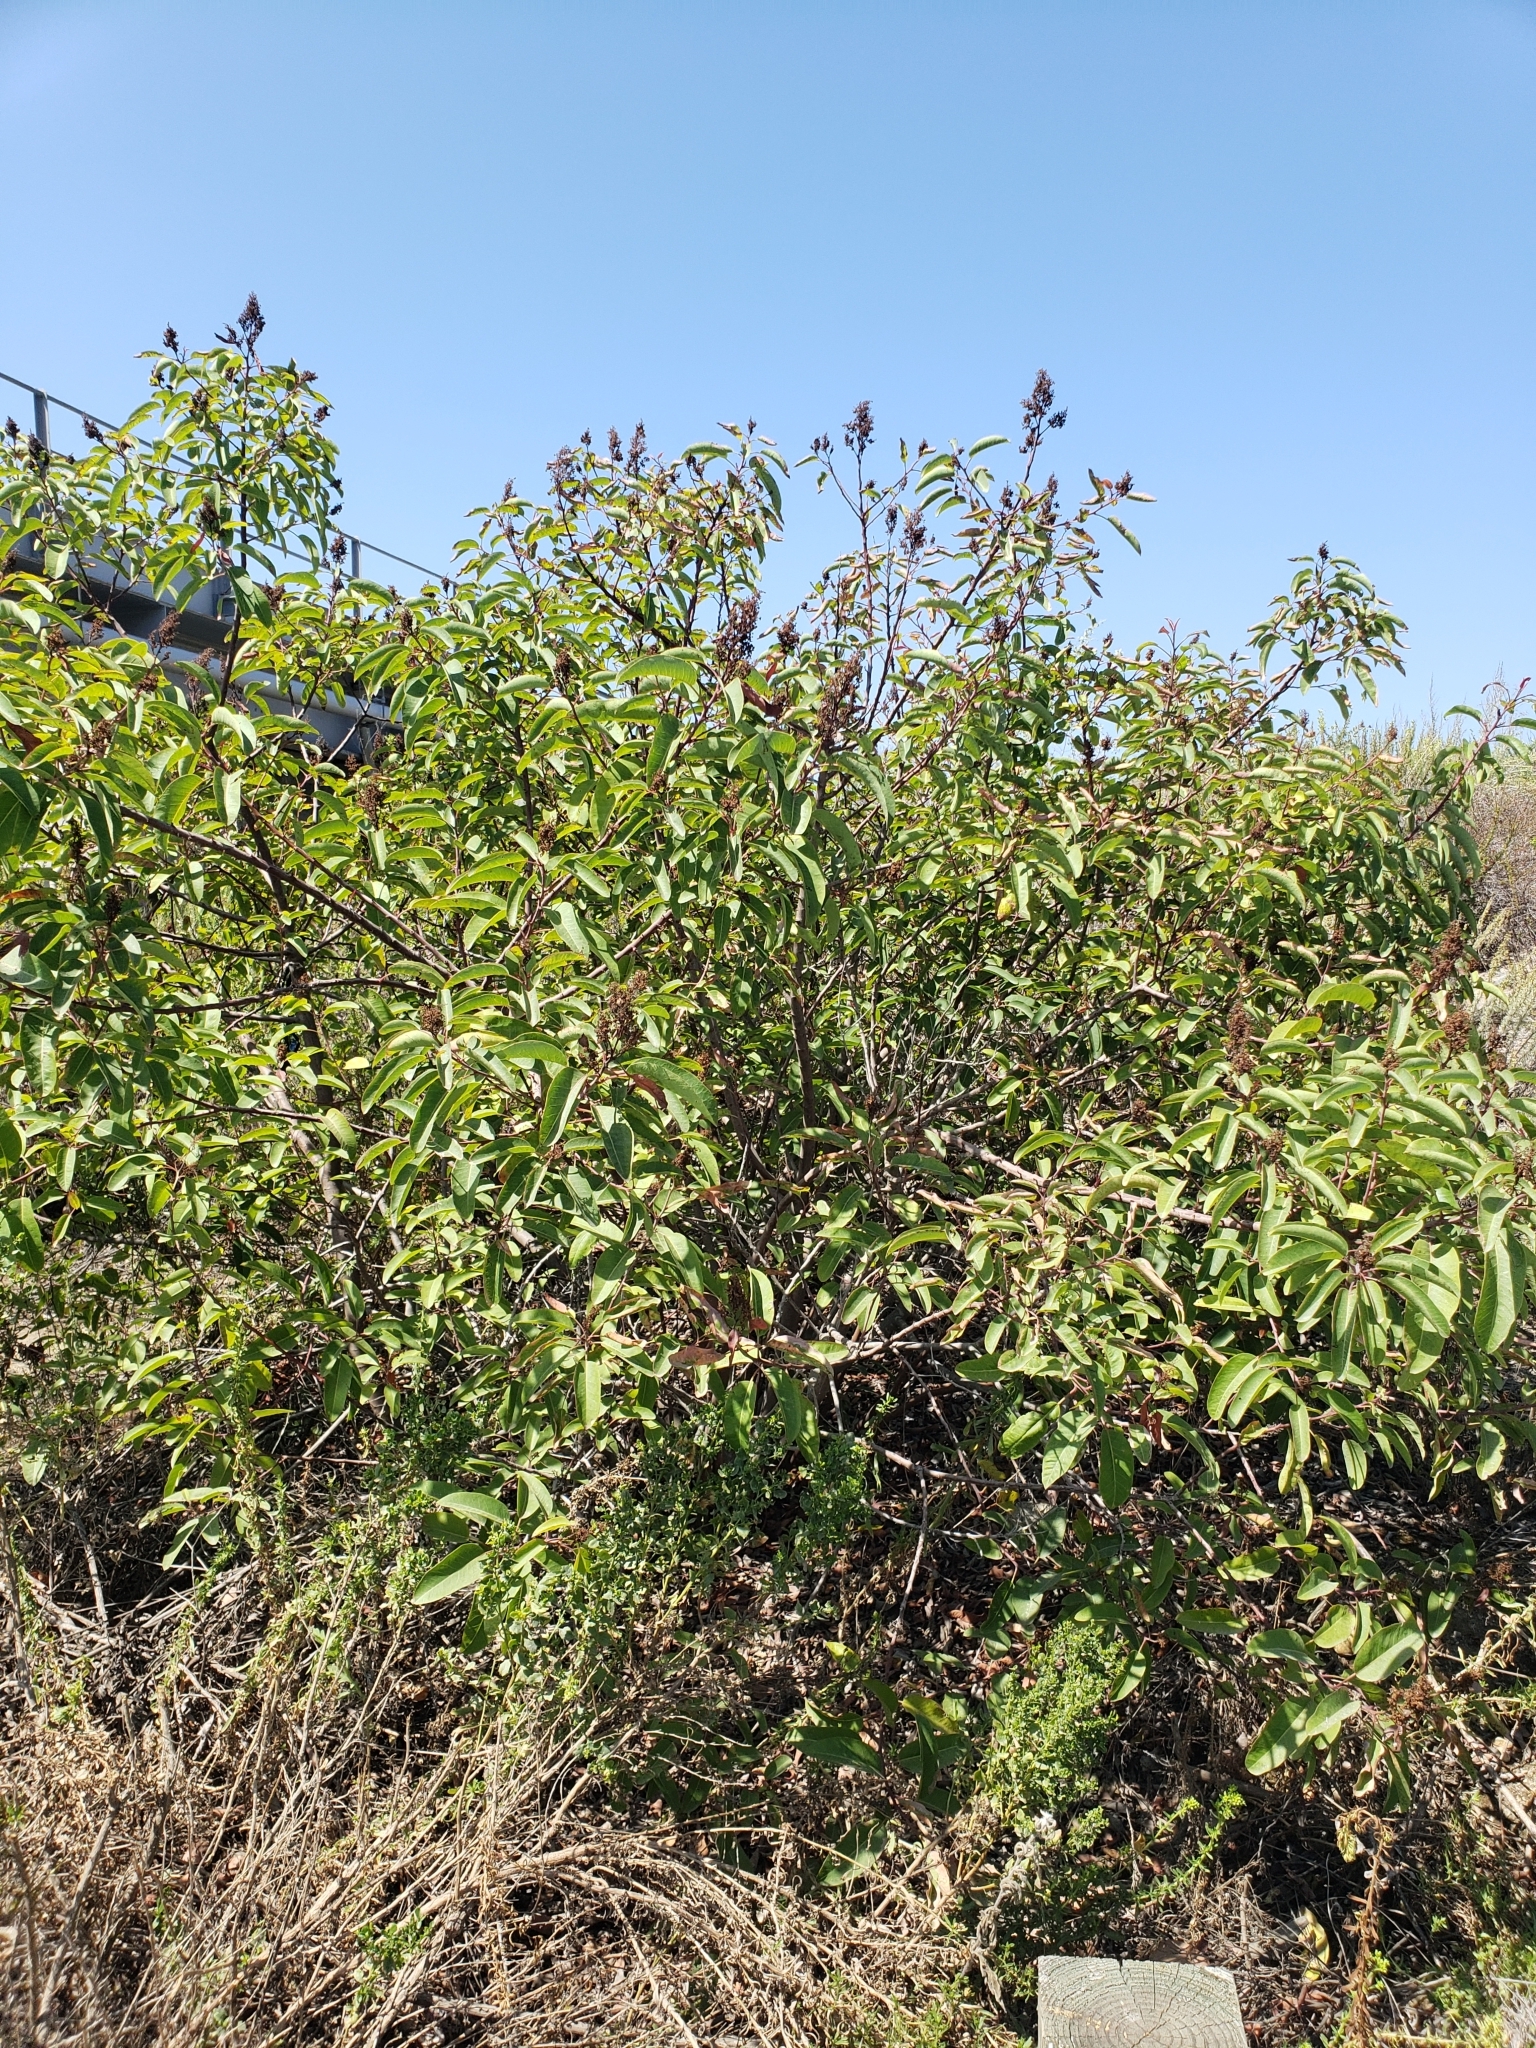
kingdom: Plantae
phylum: Tracheophyta
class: Magnoliopsida
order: Sapindales
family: Anacardiaceae
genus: Malosma
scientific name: Malosma laurina
